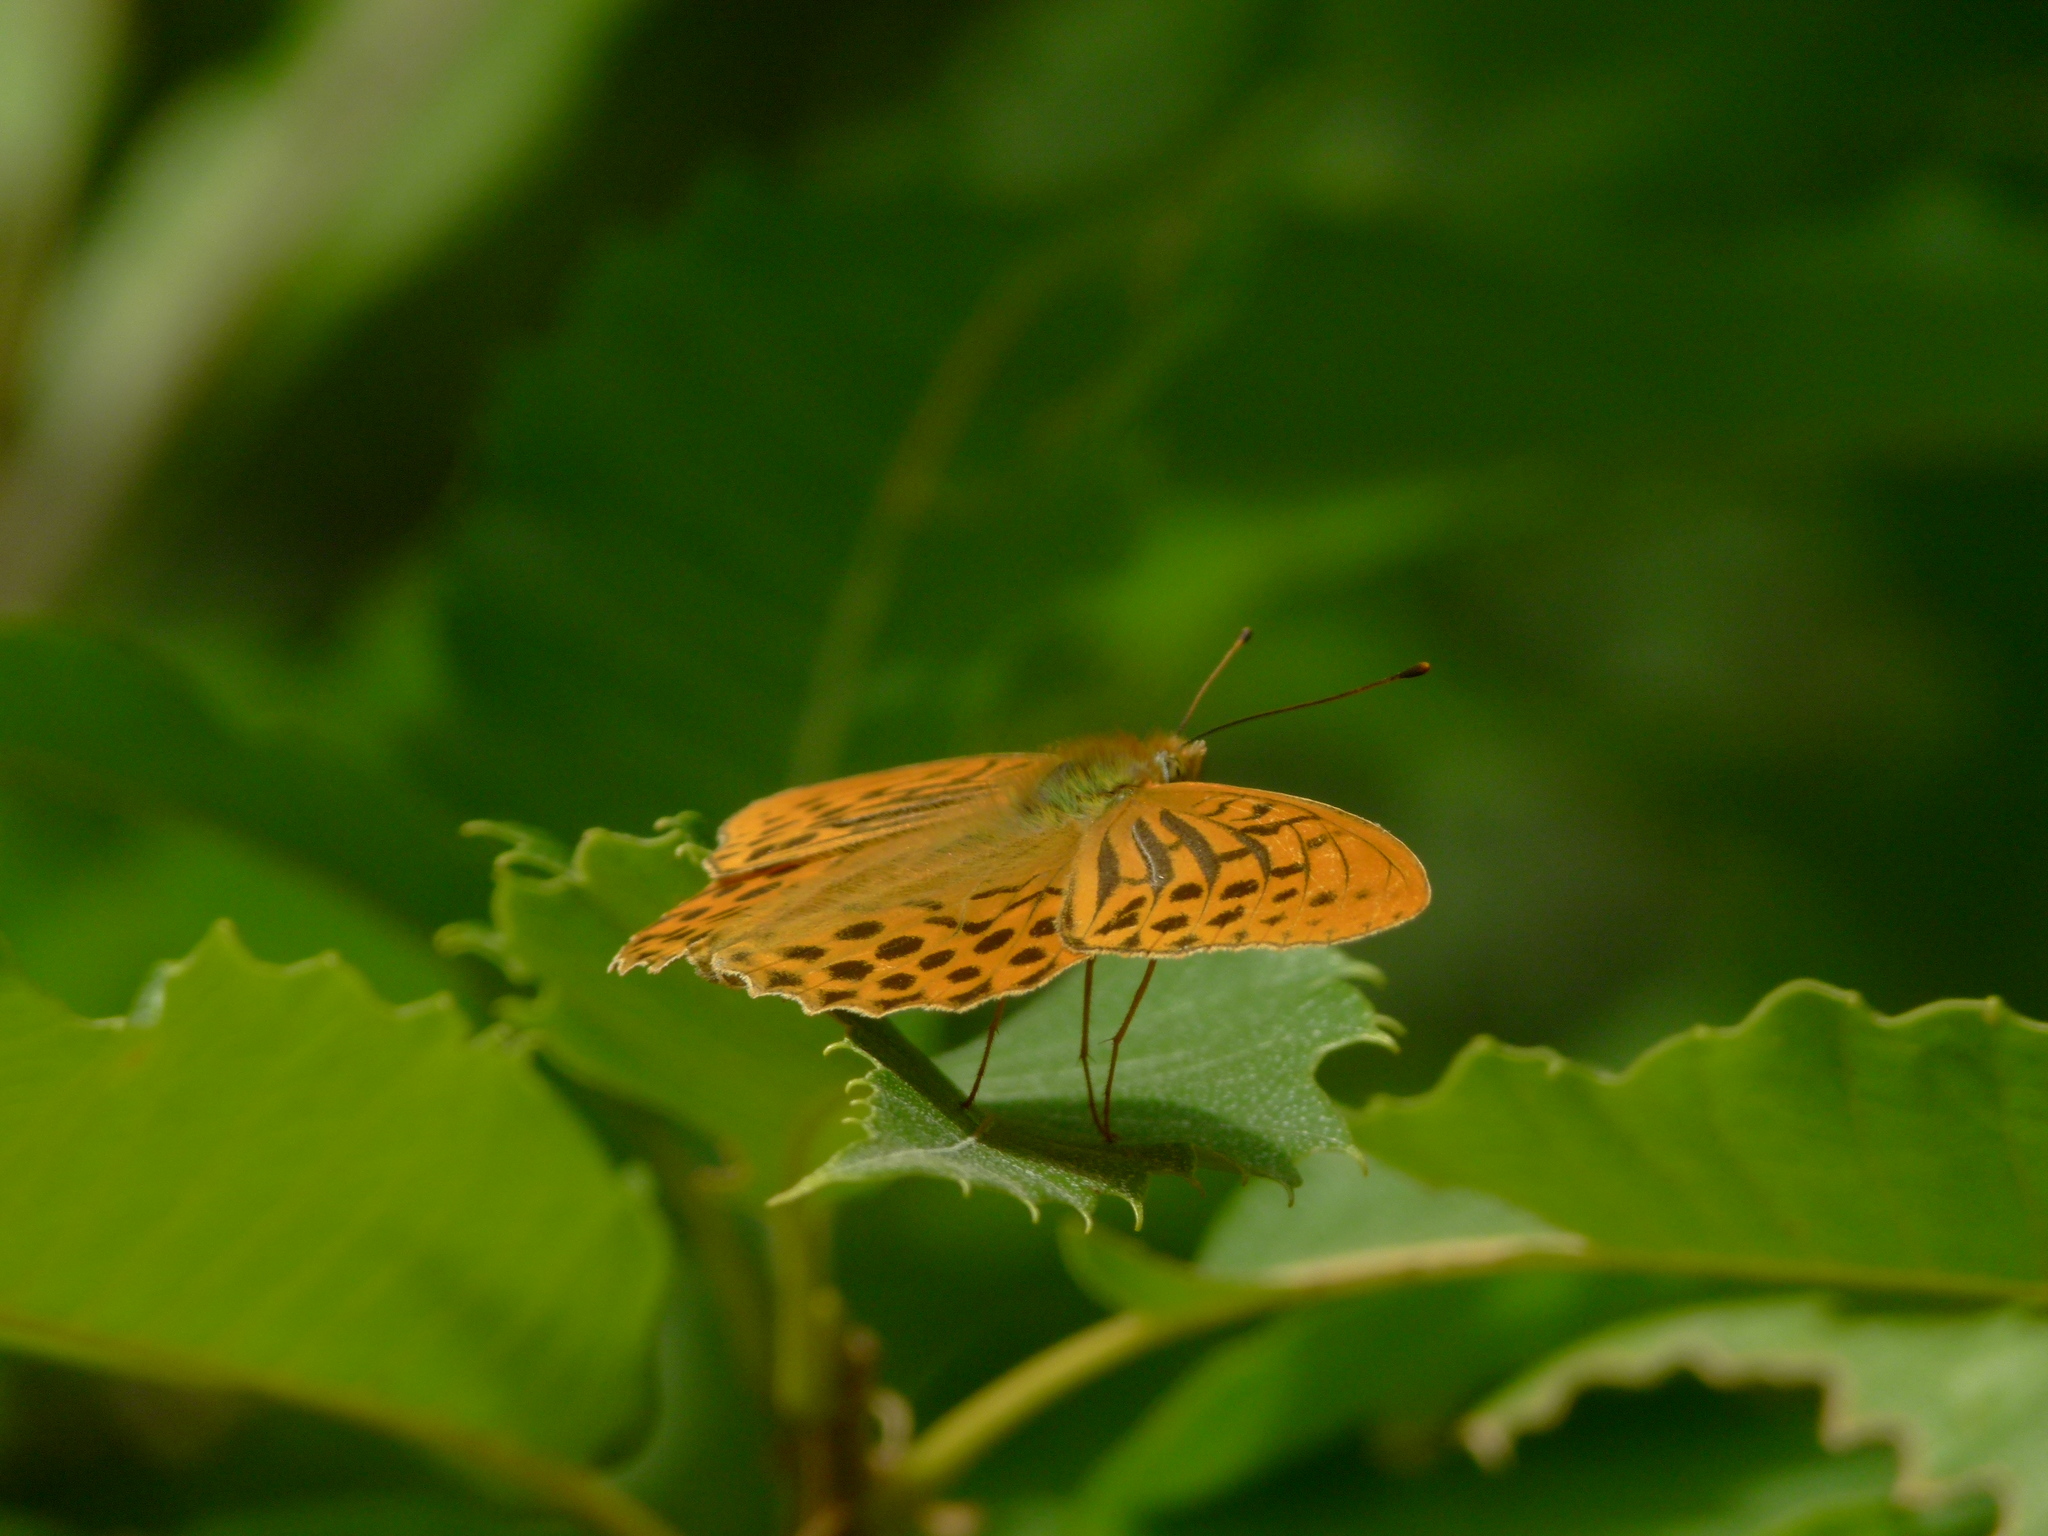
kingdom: Animalia
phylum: Arthropoda
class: Insecta
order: Lepidoptera
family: Nymphalidae
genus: Argynnis
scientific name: Argynnis paphia
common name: Silver-washed fritillary
